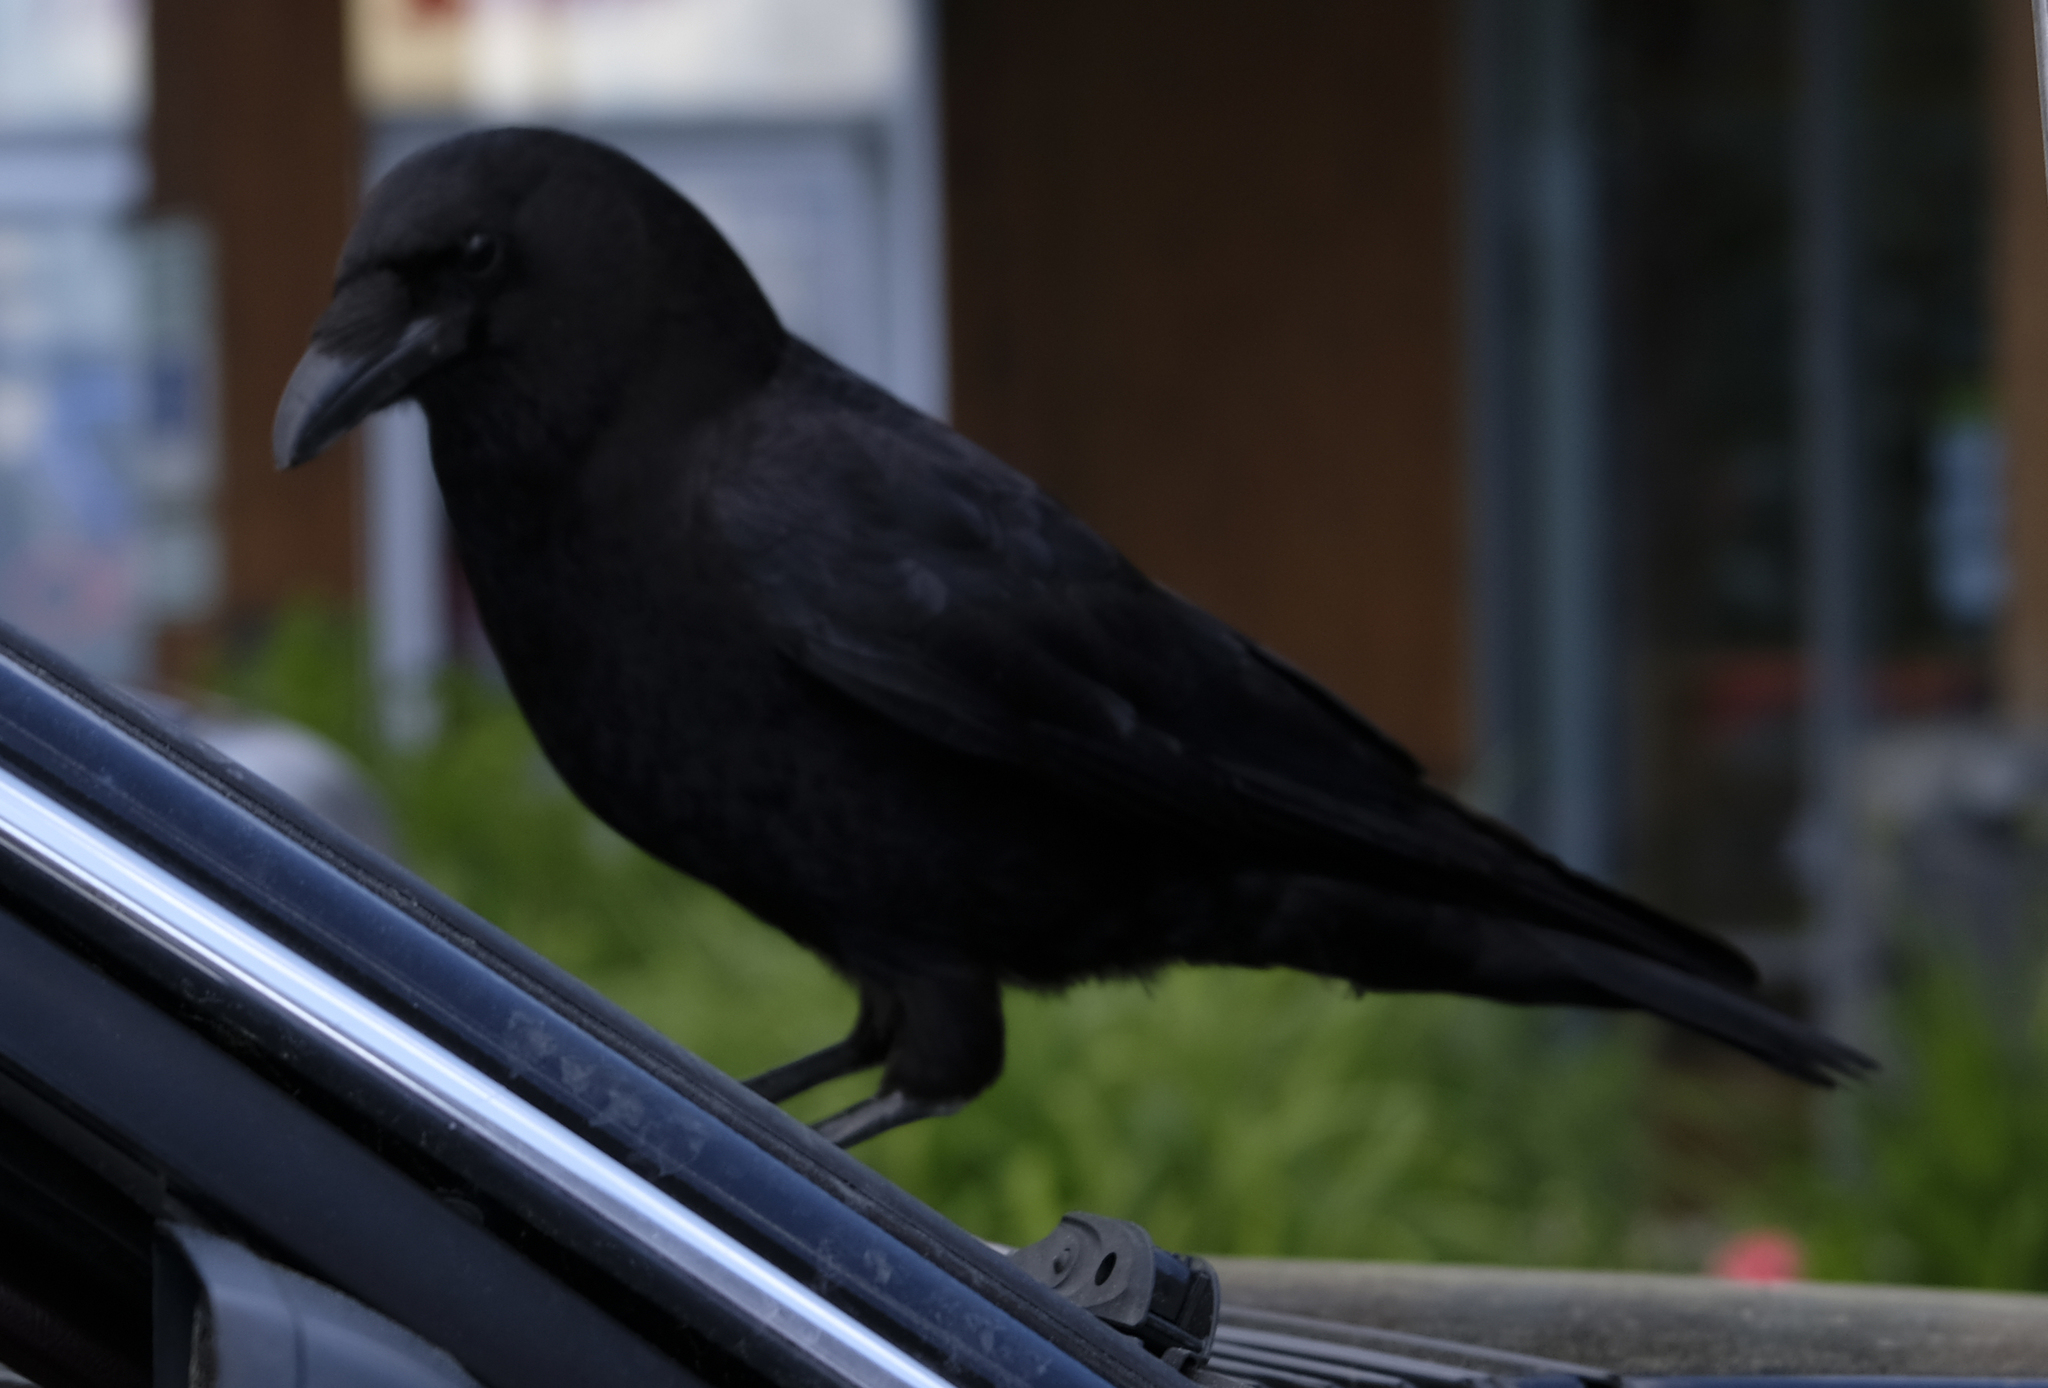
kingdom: Animalia
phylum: Chordata
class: Aves
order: Passeriformes
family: Corvidae
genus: Corvus
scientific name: Corvus brachyrhynchos
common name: American crow
